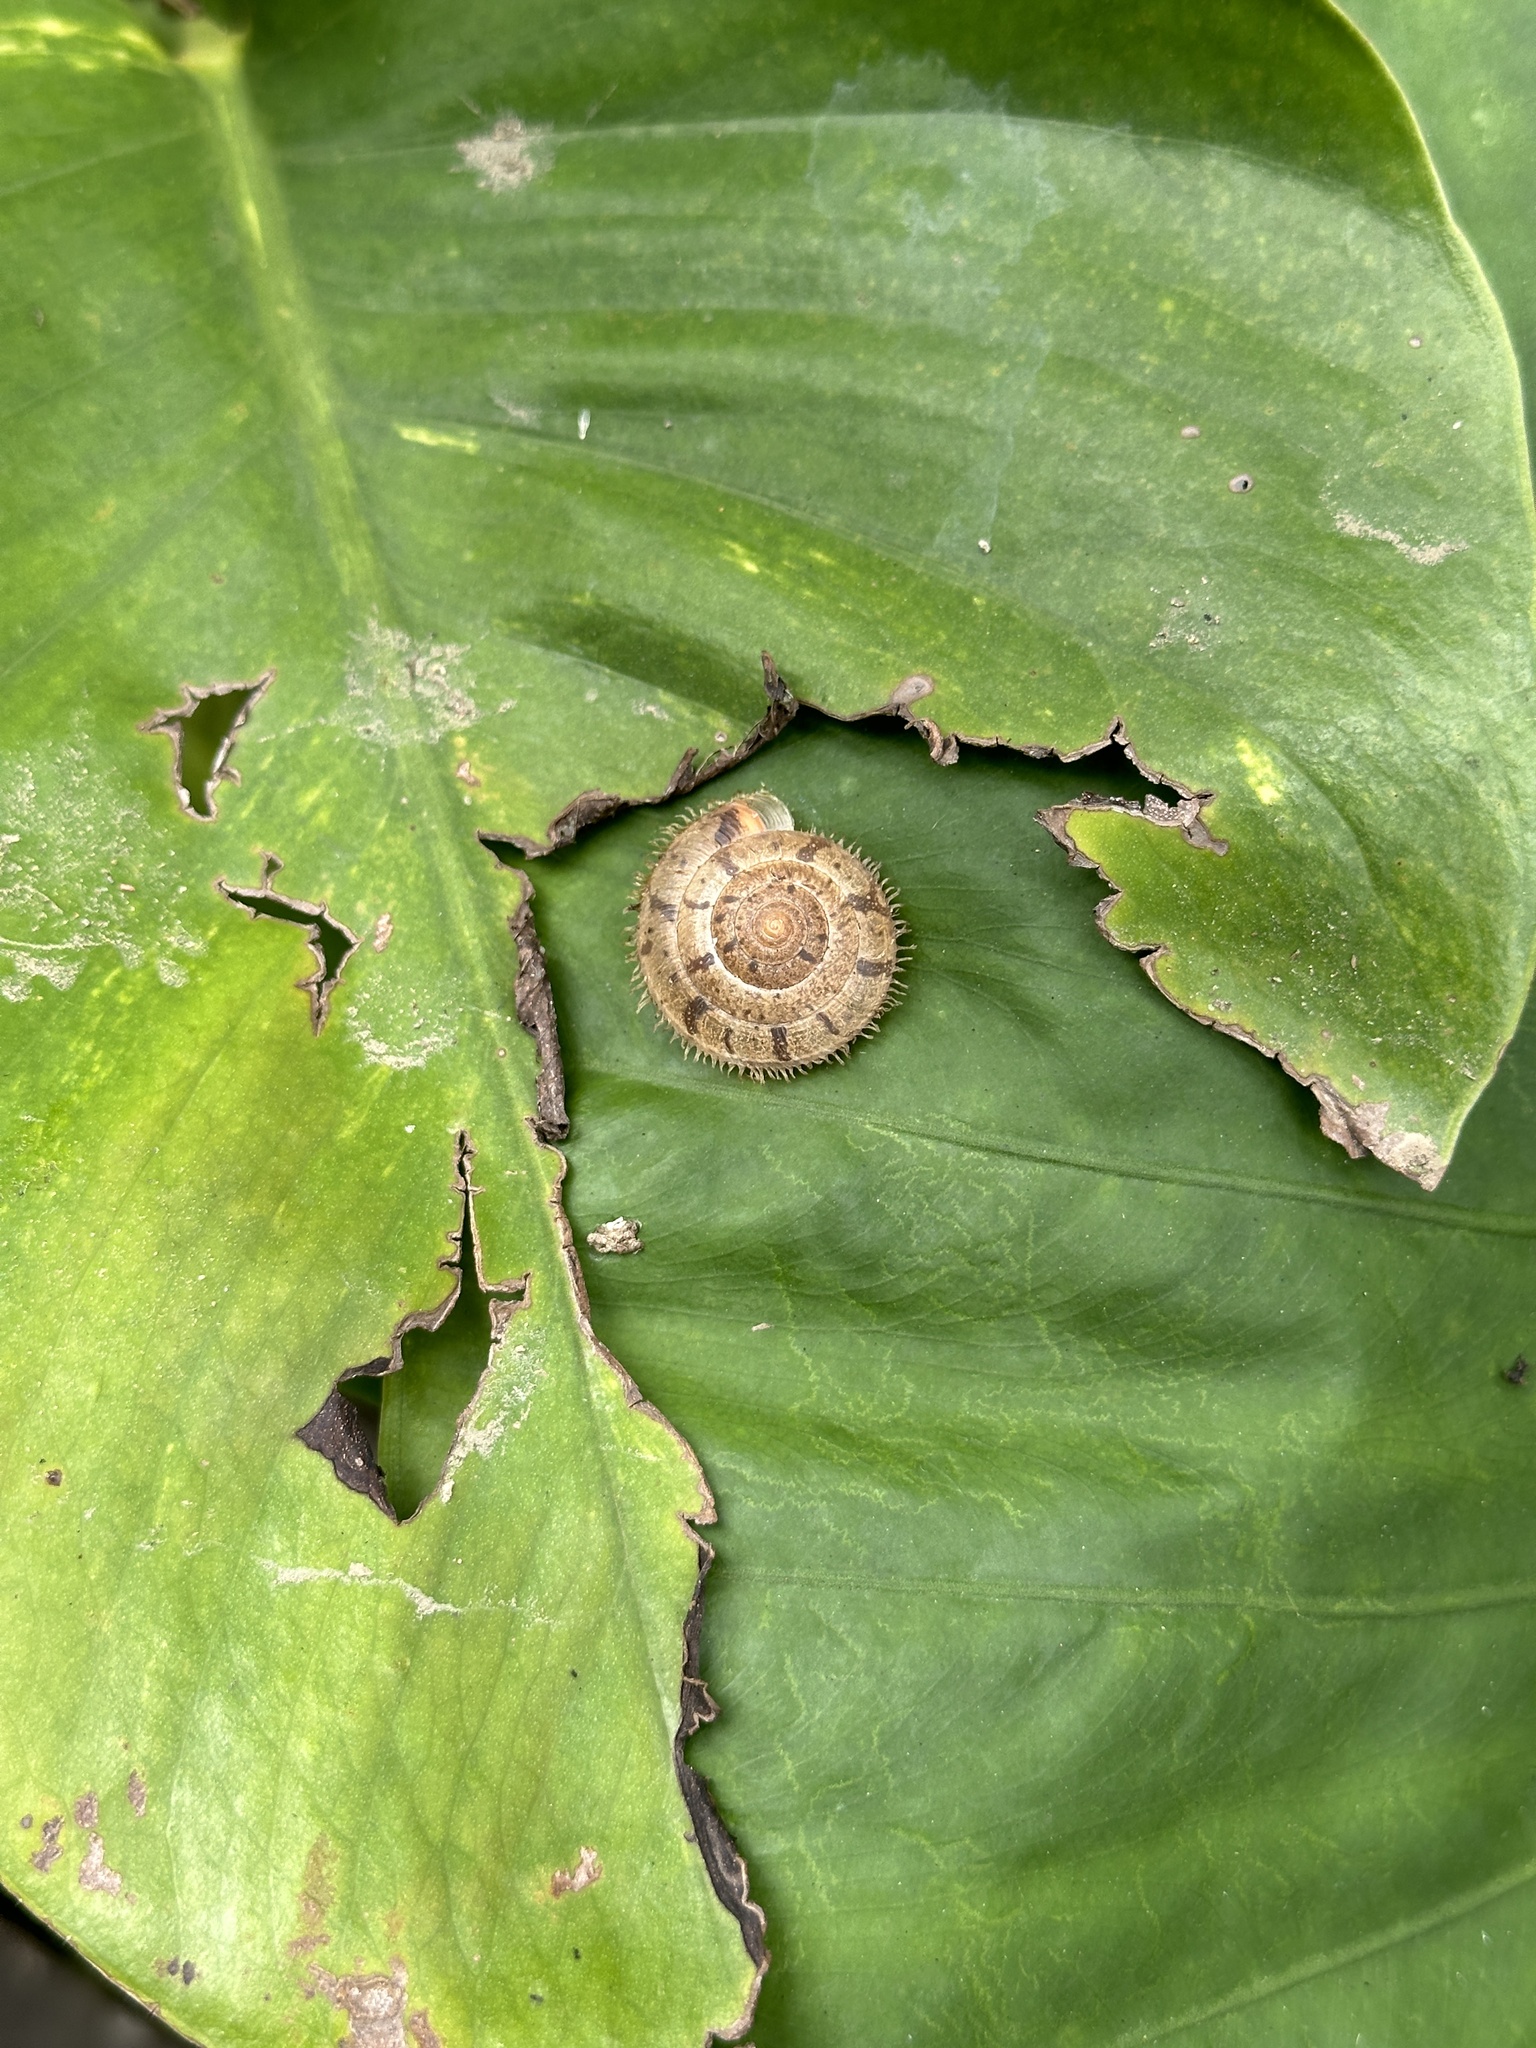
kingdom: Animalia
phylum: Mollusca
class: Gastropoda
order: Stylommatophora
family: Camaenidae
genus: Plectotropis
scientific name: Plectotropis mackensii
